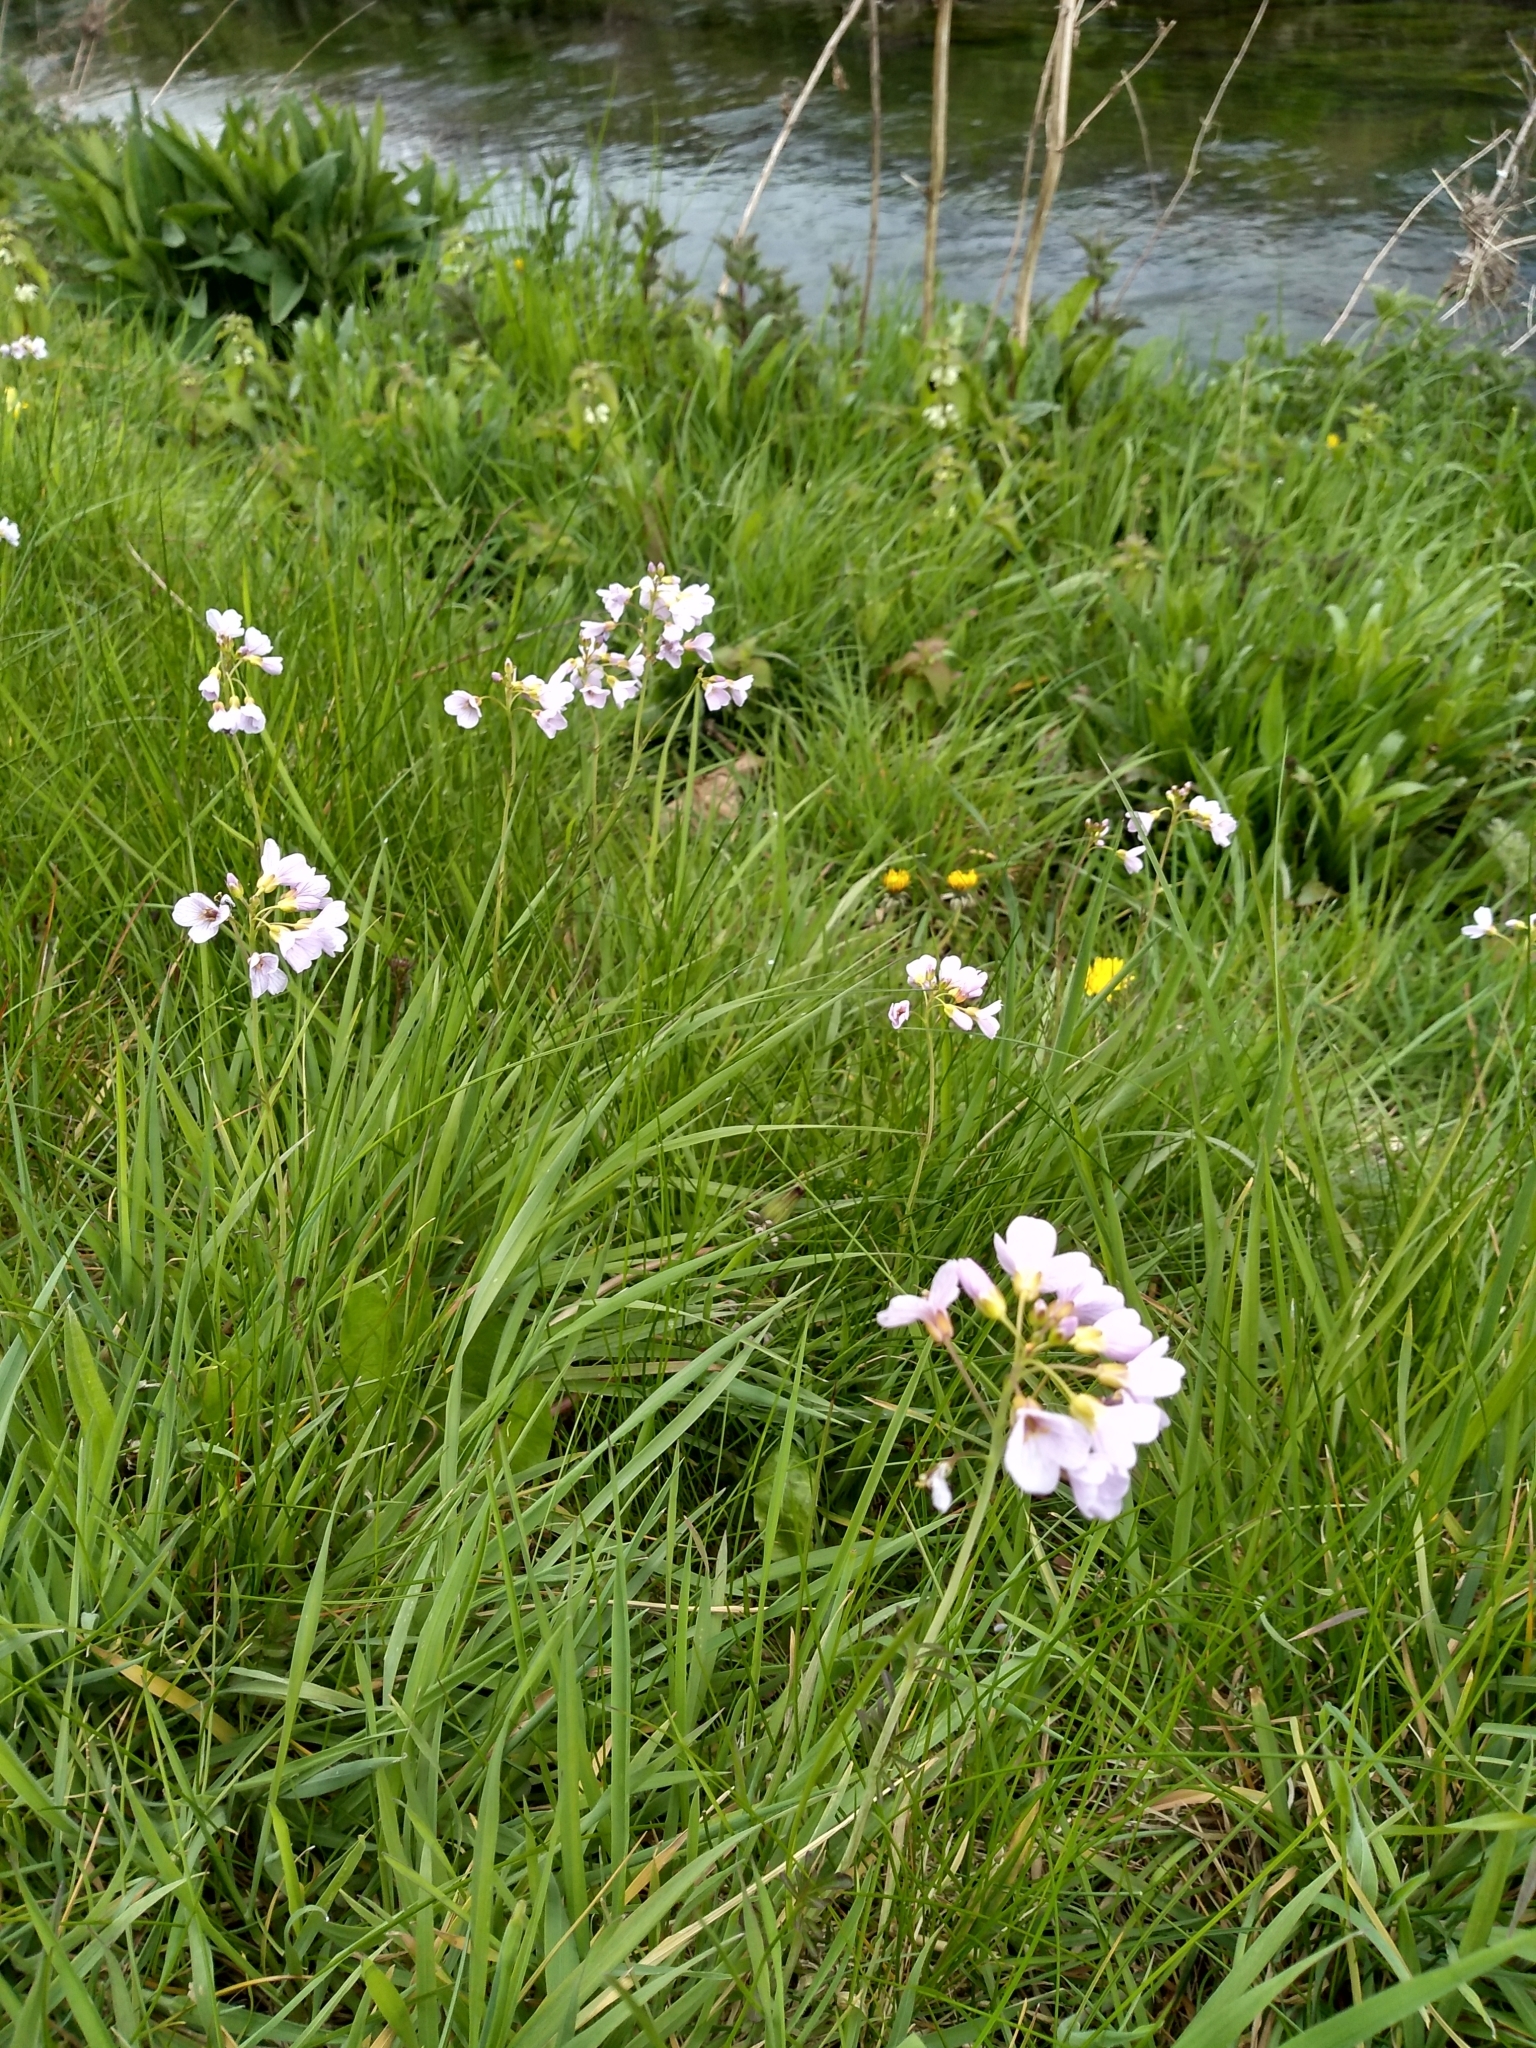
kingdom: Plantae
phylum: Tracheophyta
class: Magnoliopsida
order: Brassicales
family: Brassicaceae
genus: Cardamine
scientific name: Cardamine pratensis
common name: Cuckoo flower
